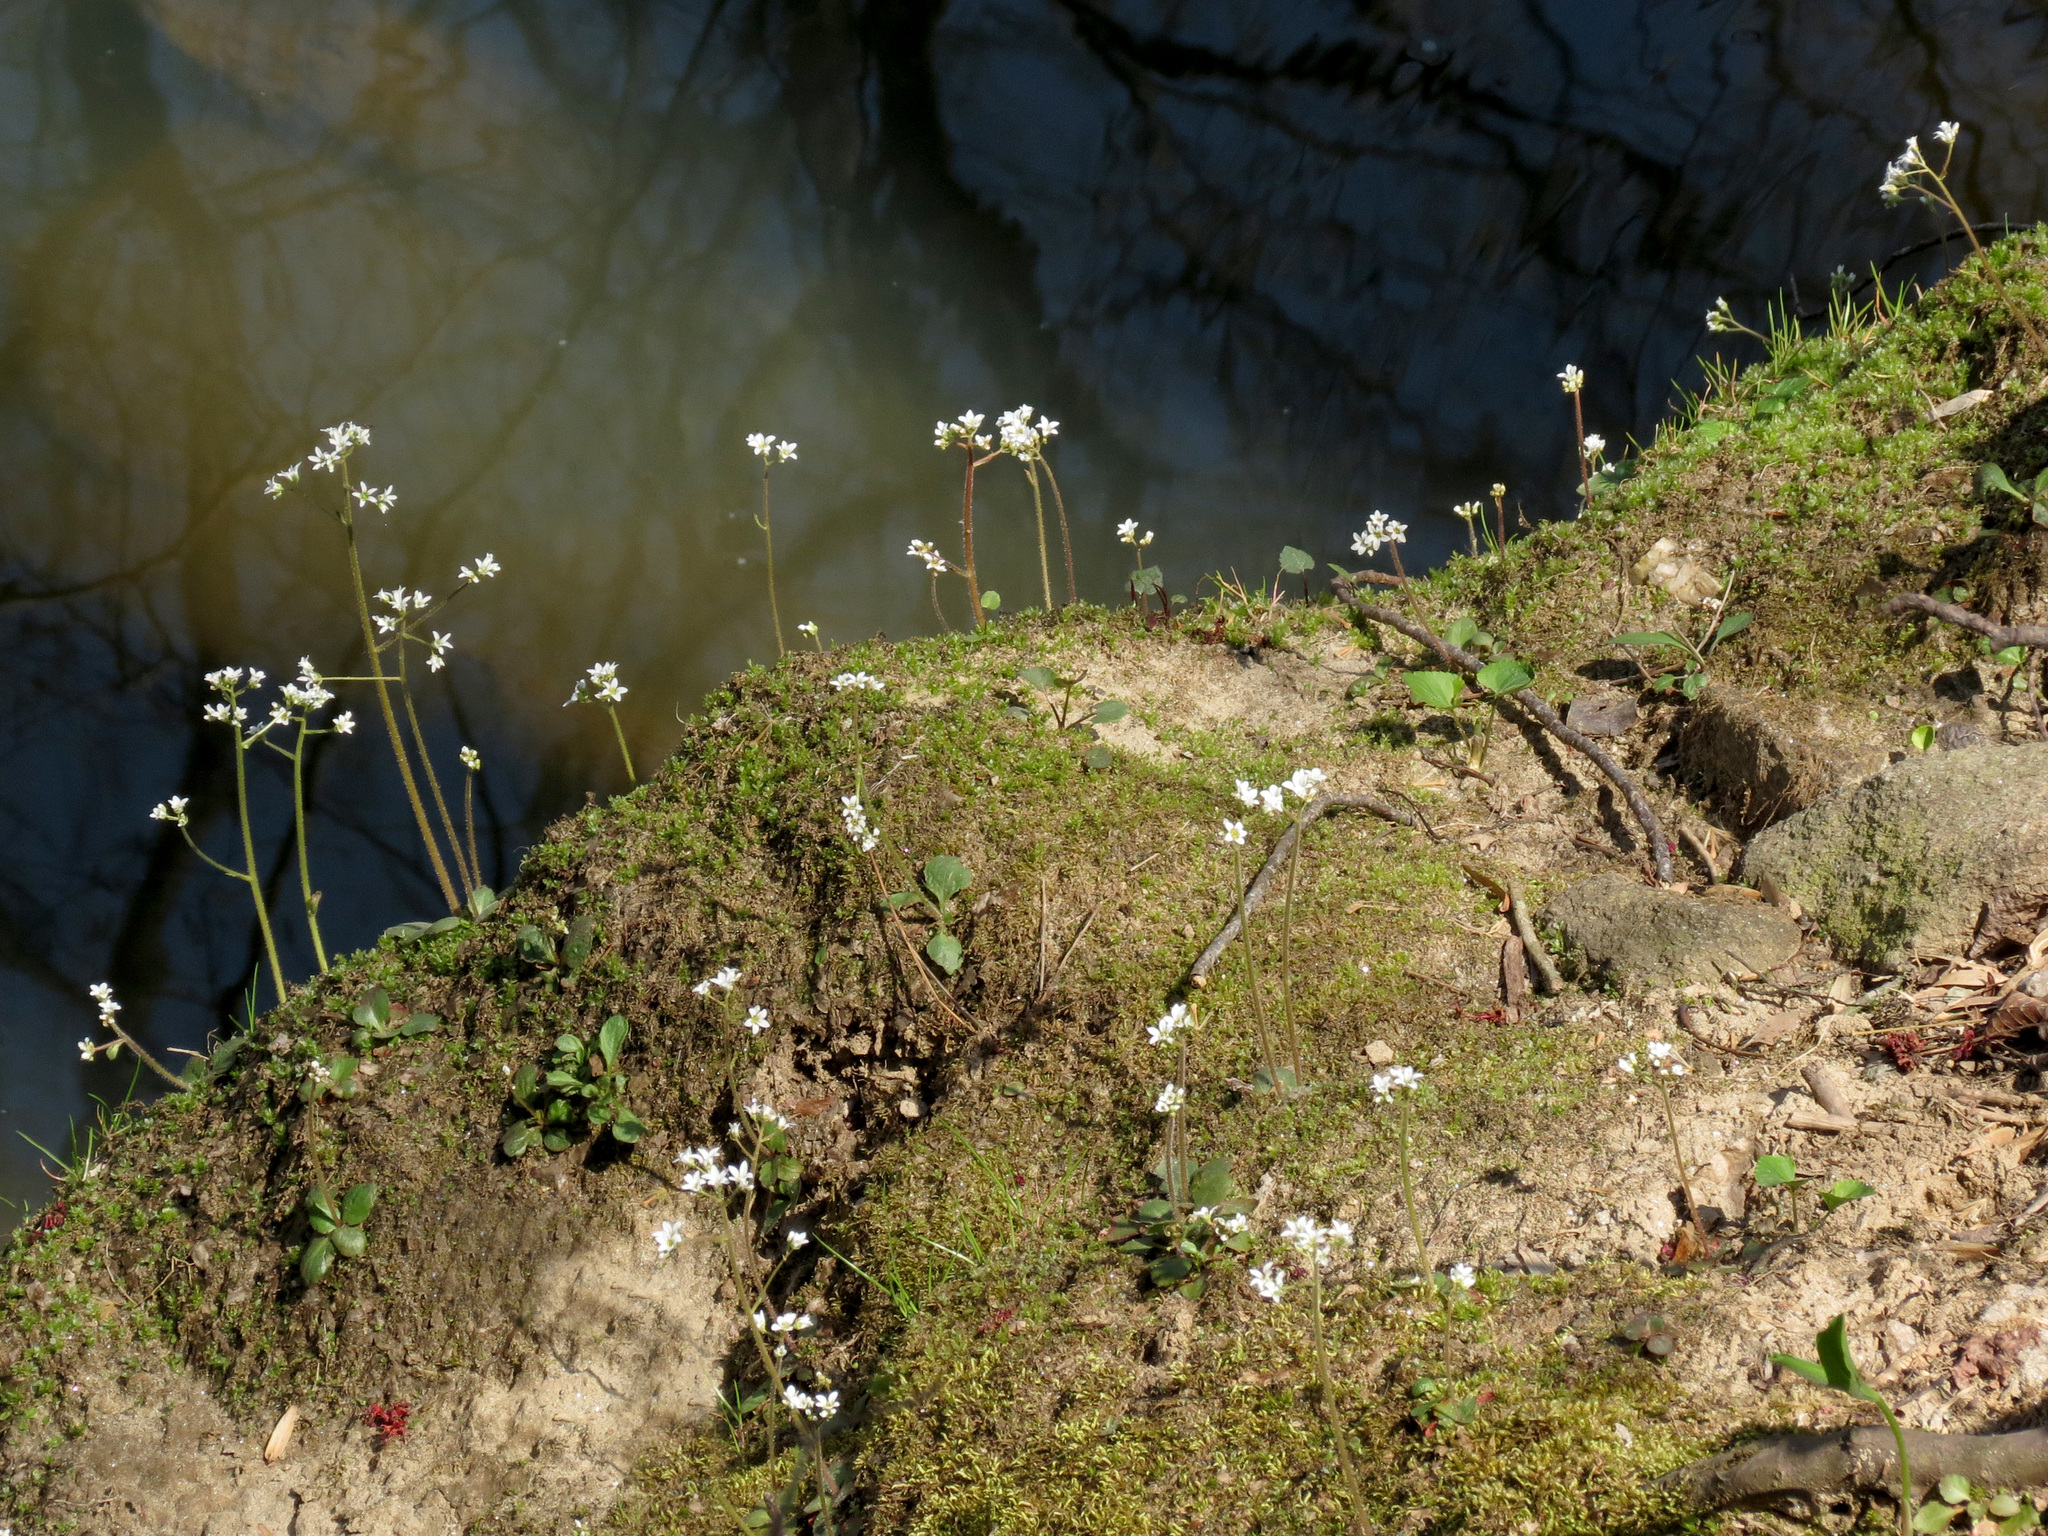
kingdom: Plantae
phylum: Tracheophyta
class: Magnoliopsida
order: Saxifragales
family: Saxifragaceae
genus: Micranthes
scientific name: Micranthes virginiensis
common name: Early saxifrage
